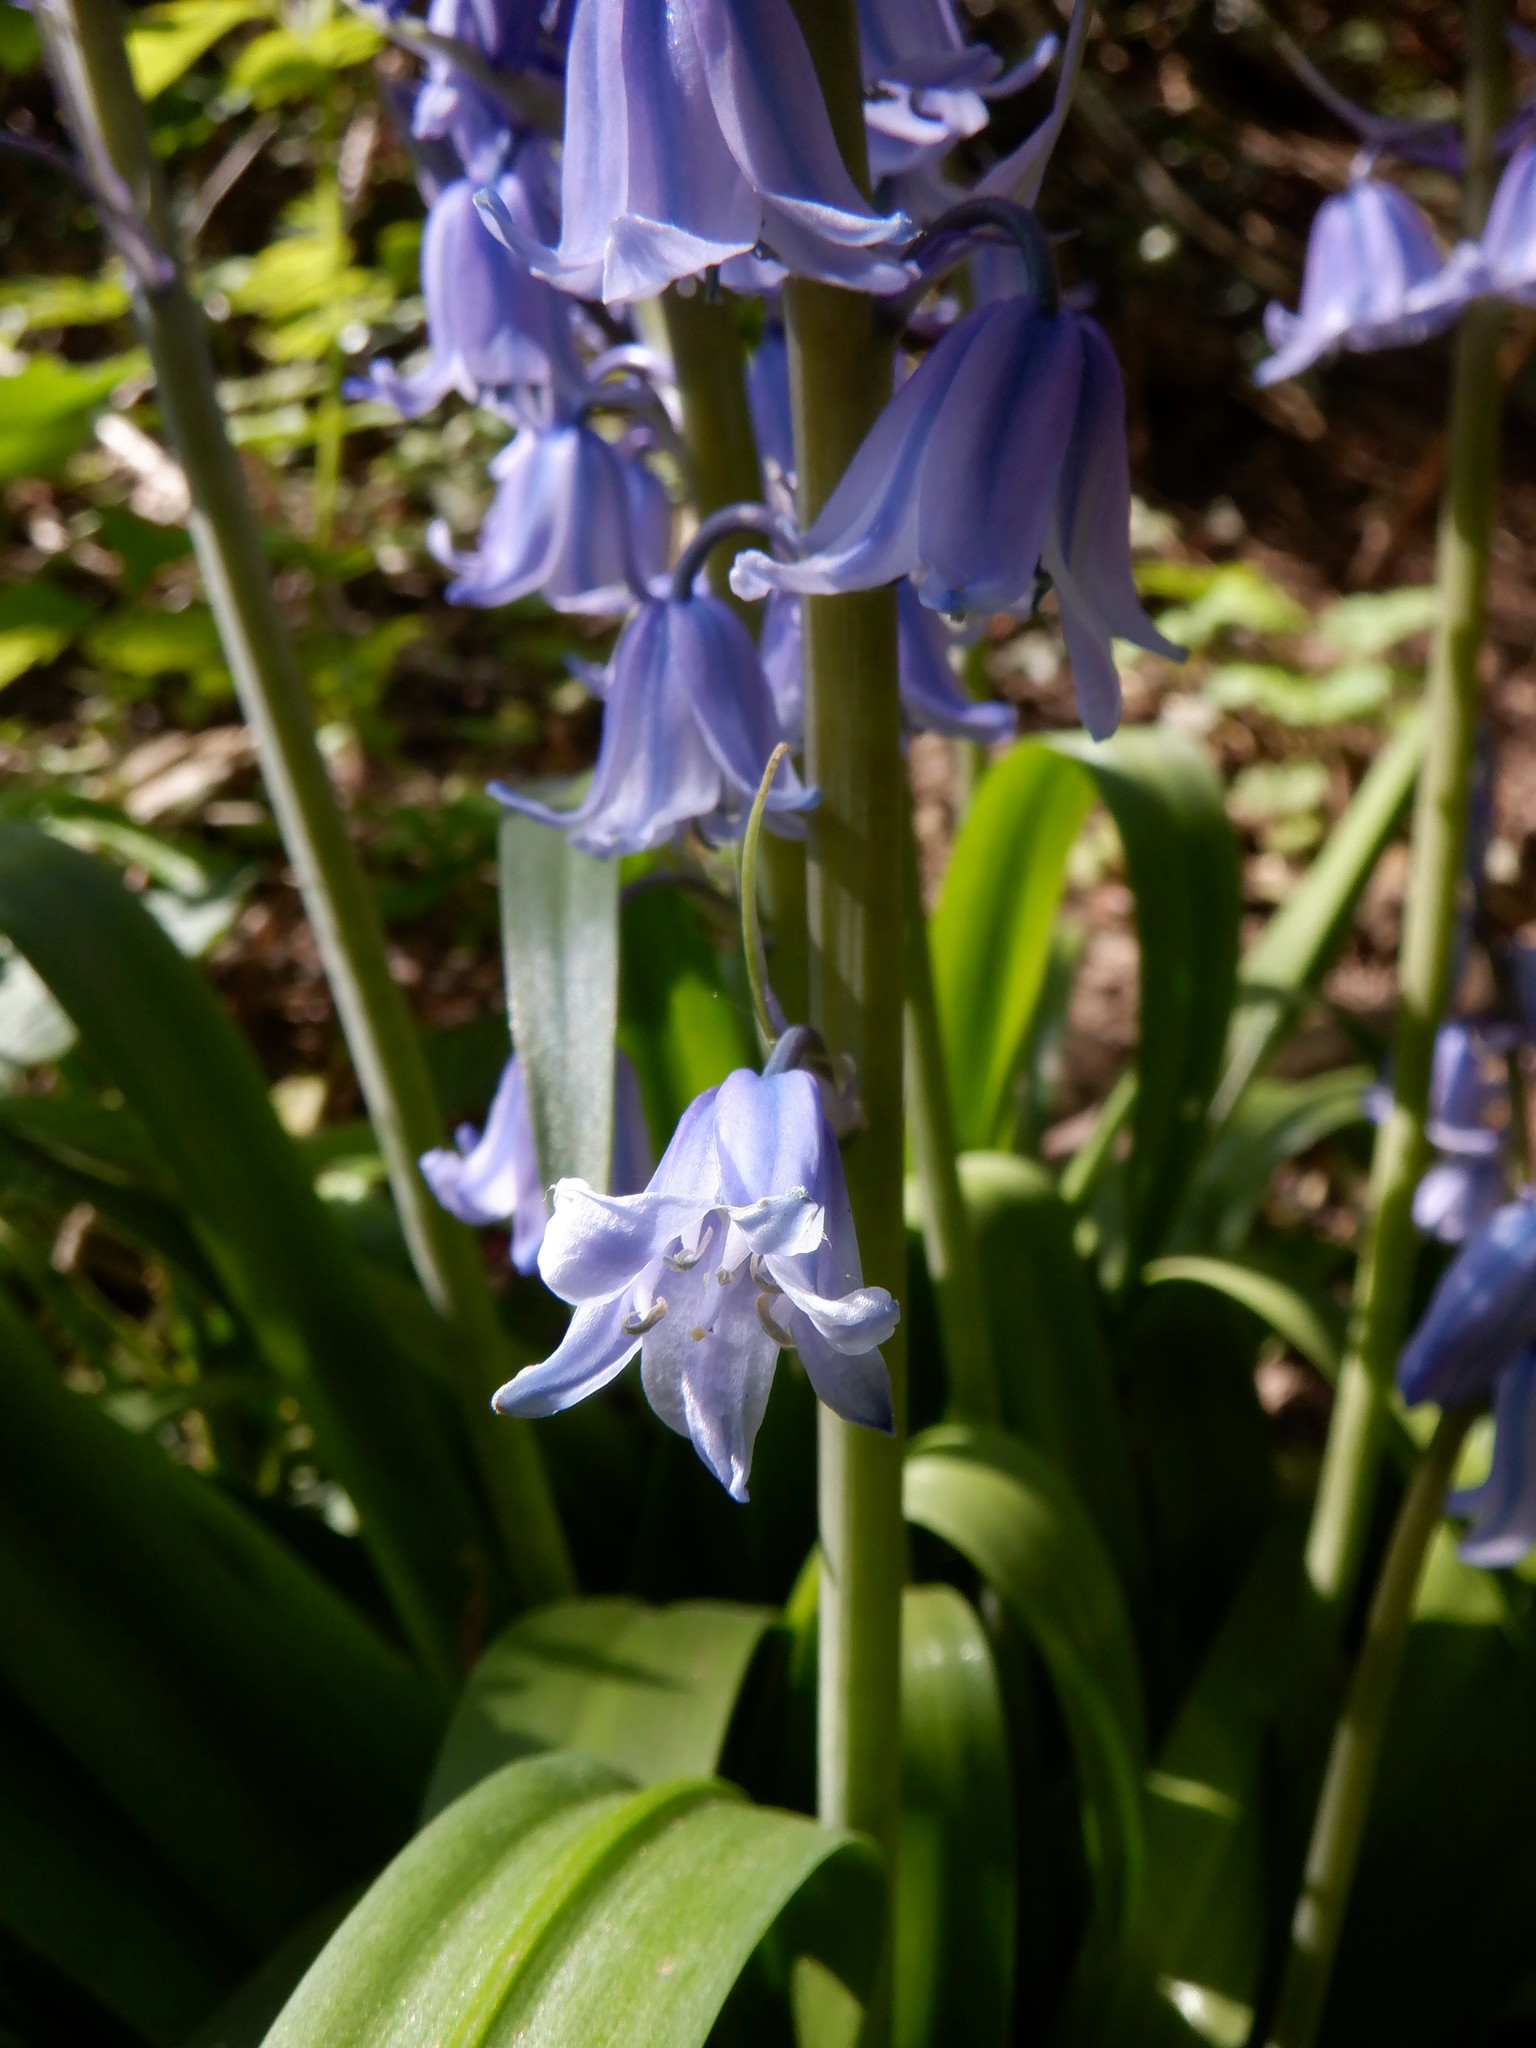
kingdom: Plantae
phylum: Tracheophyta
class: Liliopsida
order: Asparagales
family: Asparagaceae
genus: Hyacinthoides
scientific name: Hyacinthoides massartiana
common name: Hyacinthoides
